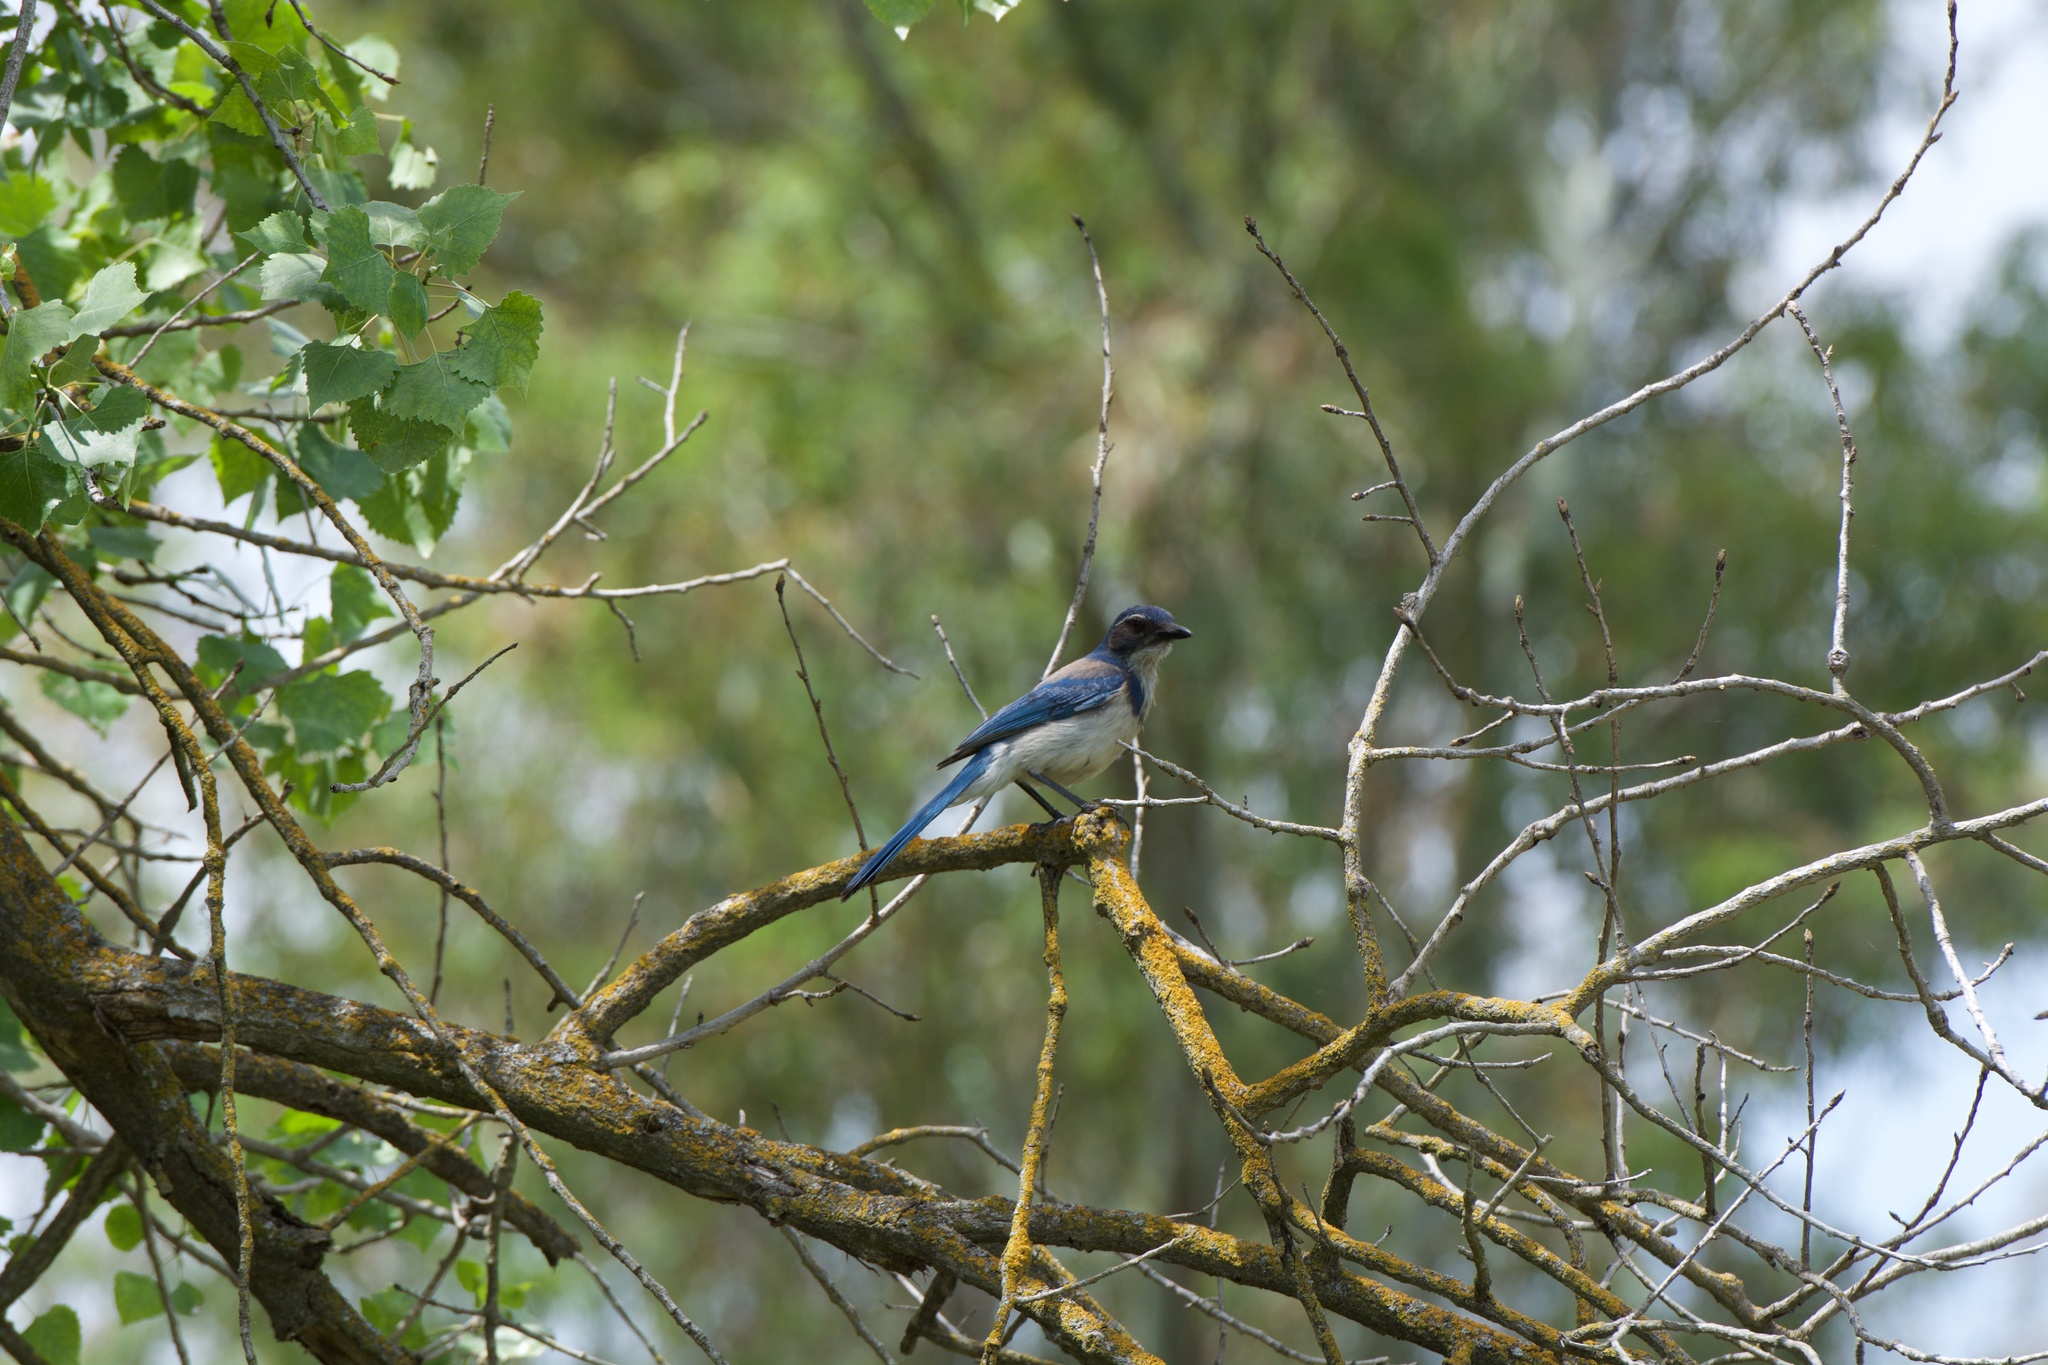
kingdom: Animalia
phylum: Chordata
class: Aves
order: Passeriformes
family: Corvidae
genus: Aphelocoma
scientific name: Aphelocoma californica
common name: California scrub-jay
